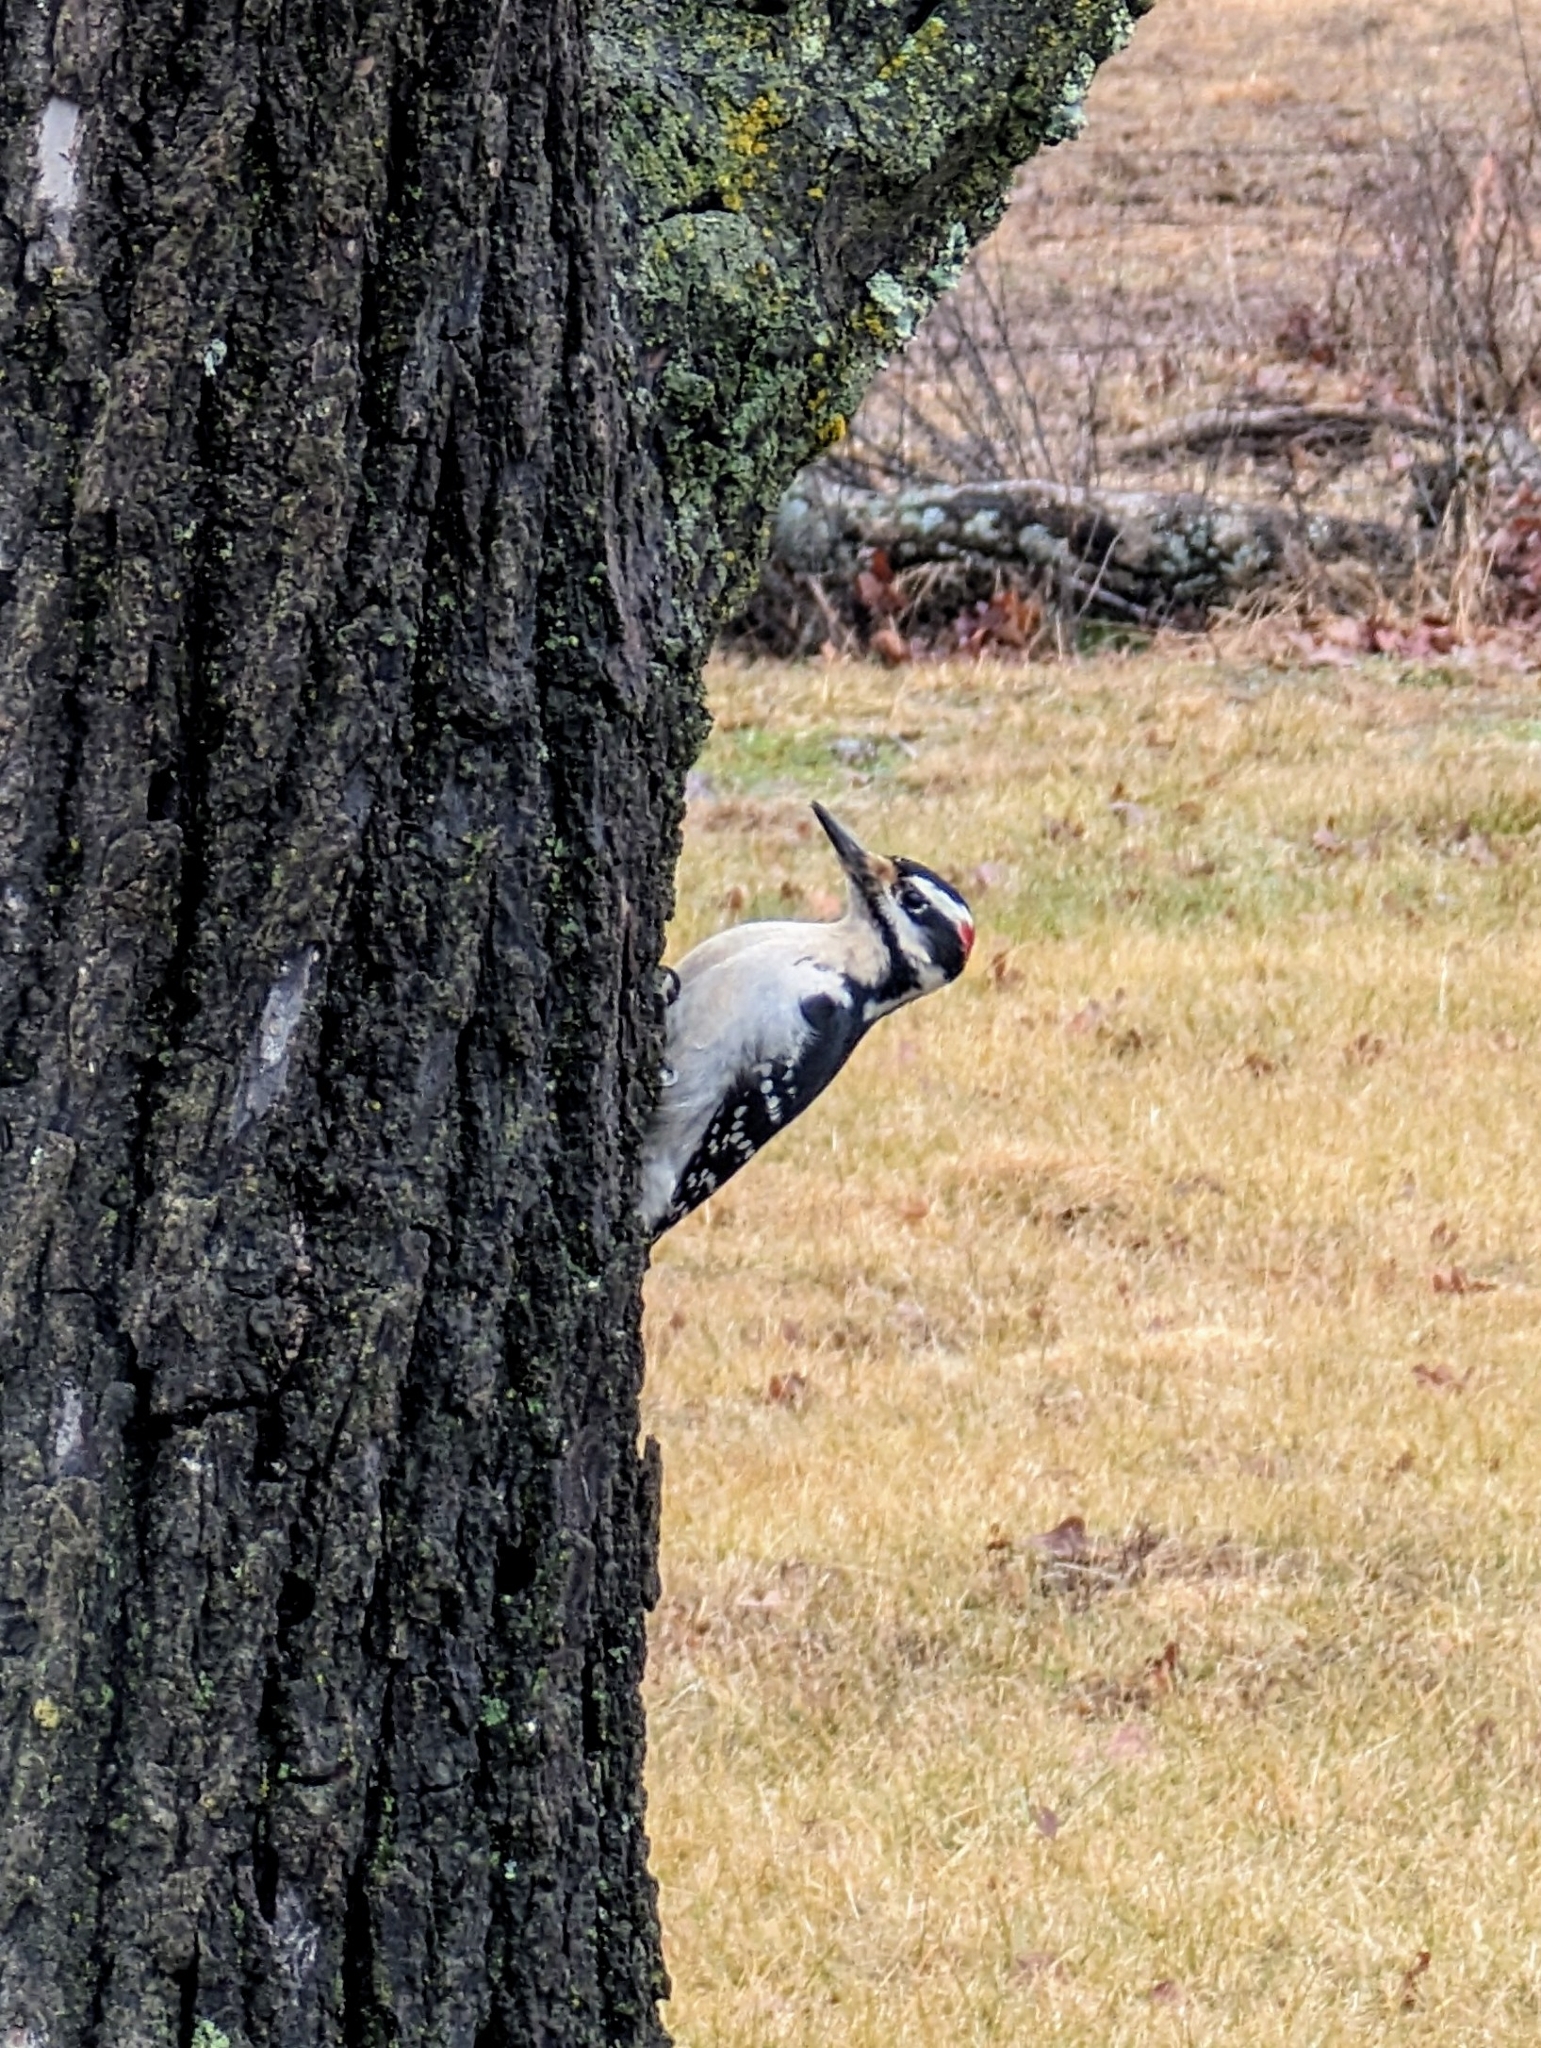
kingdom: Animalia
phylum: Chordata
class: Aves
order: Piciformes
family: Picidae
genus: Leuconotopicus
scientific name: Leuconotopicus villosus
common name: Hairy woodpecker
